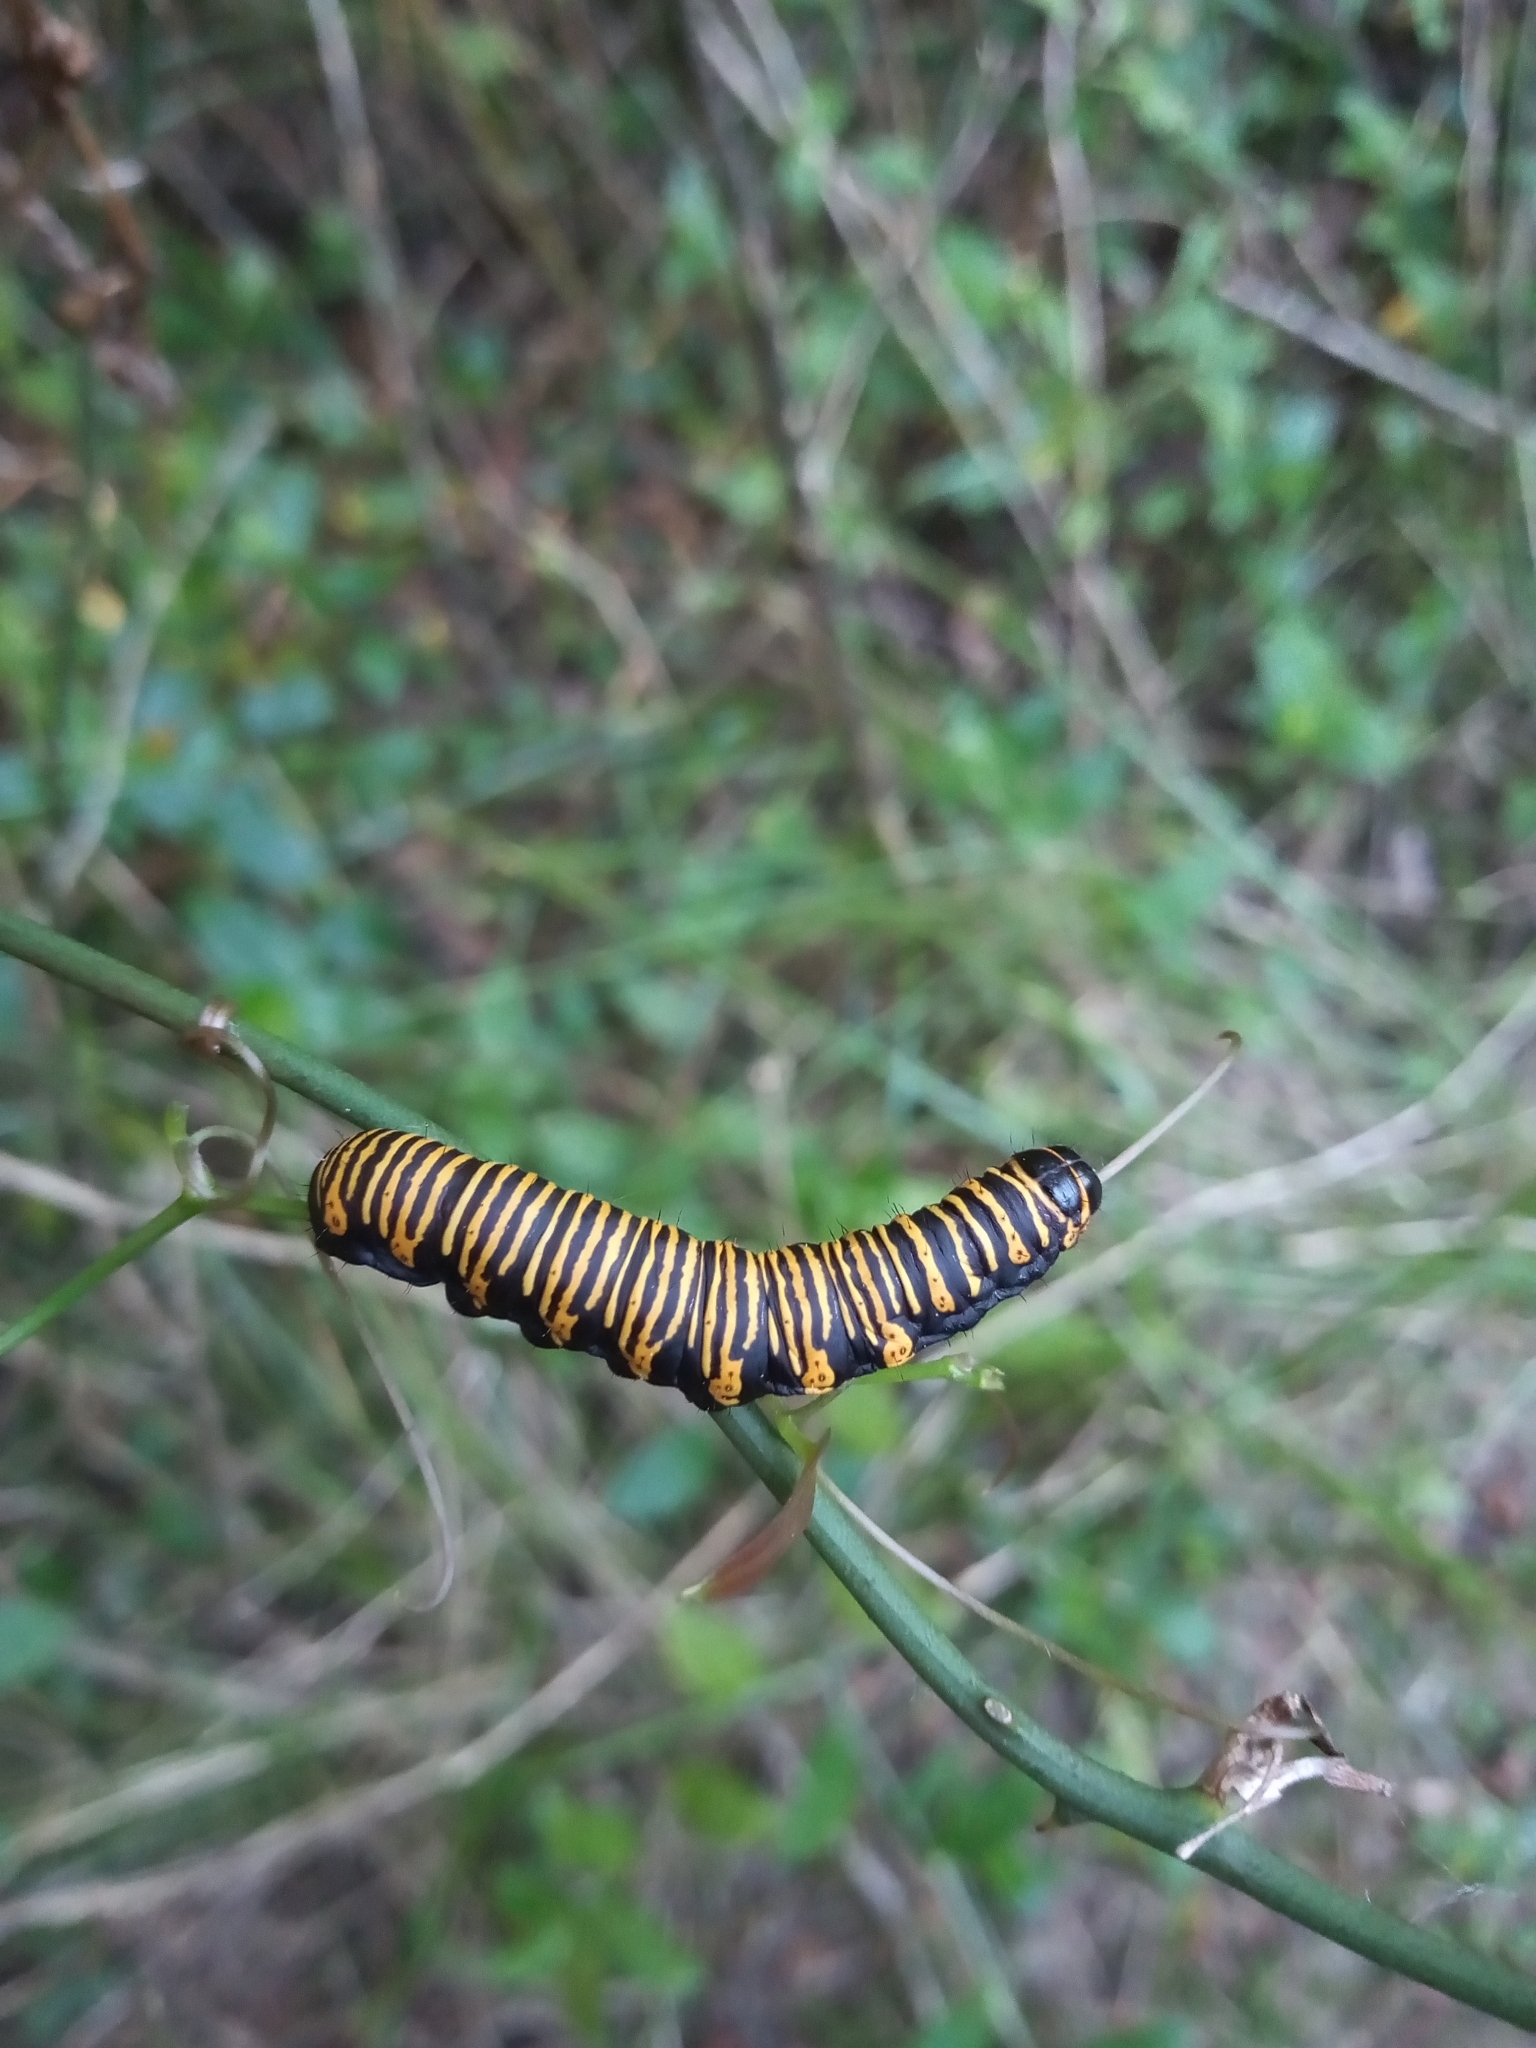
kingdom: Animalia
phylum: Arthropoda
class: Insecta
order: Lepidoptera
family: Erebidae
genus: Cabralia
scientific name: Cabralia Cromobergia teichii
